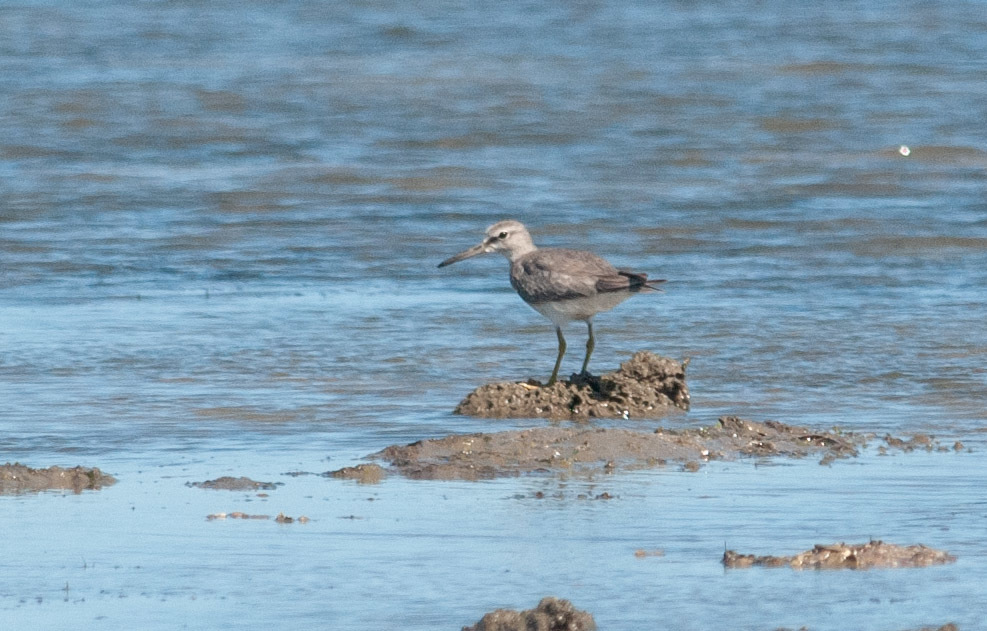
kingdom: Animalia
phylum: Chordata
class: Aves
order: Charadriiformes
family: Scolopacidae
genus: Tringa
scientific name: Tringa brevipes
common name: Grey-tailed tattler
